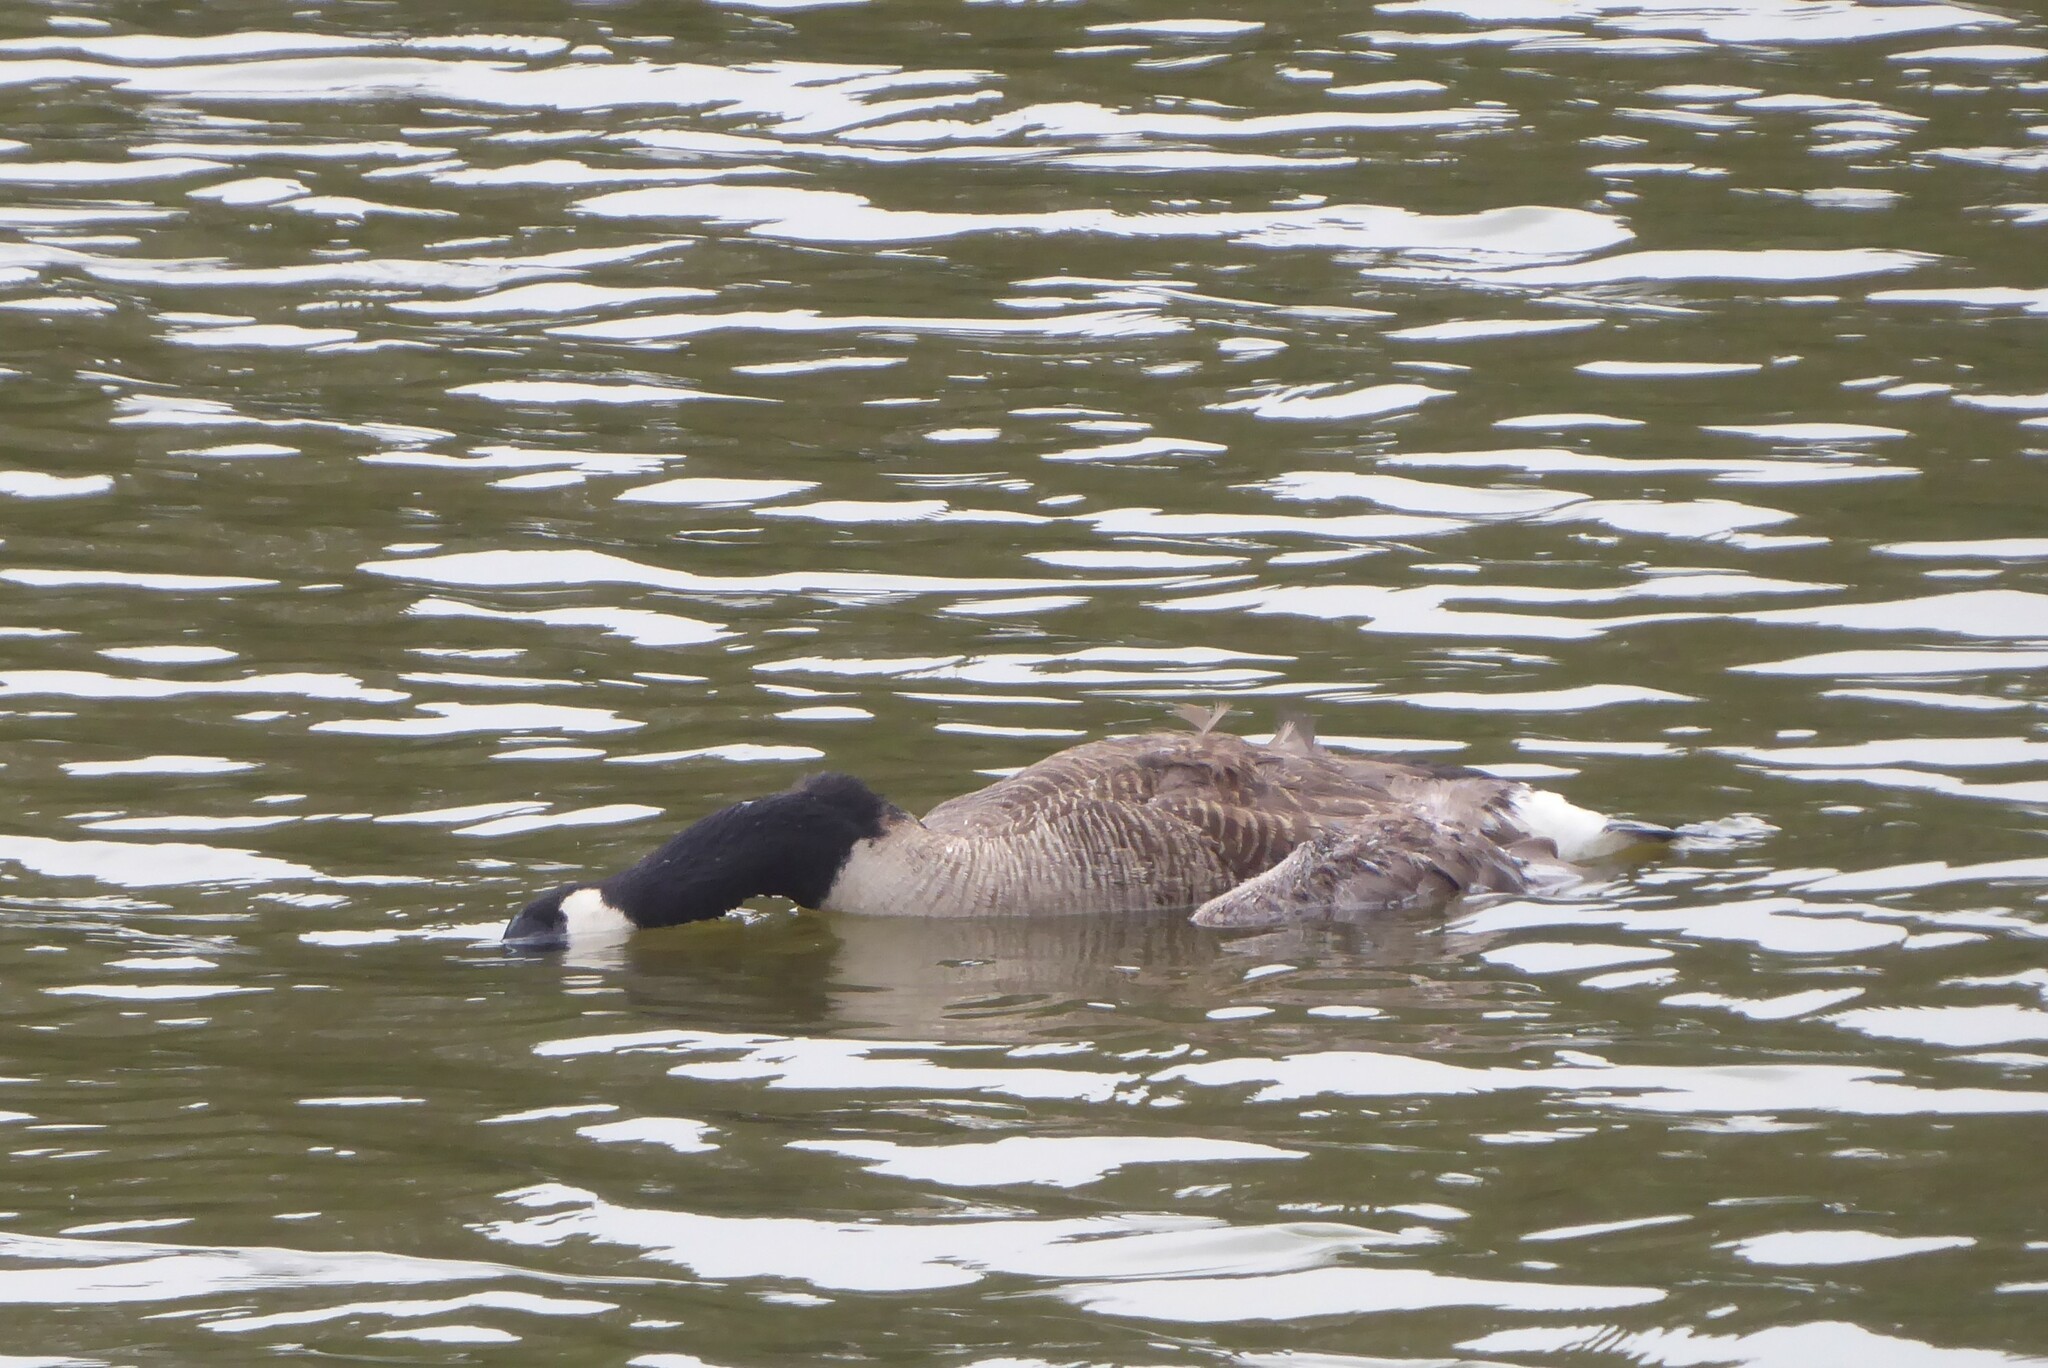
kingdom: Animalia
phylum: Chordata
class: Aves
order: Anseriformes
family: Anatidae
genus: Branta
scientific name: Branta canadensis
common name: Canada goose
